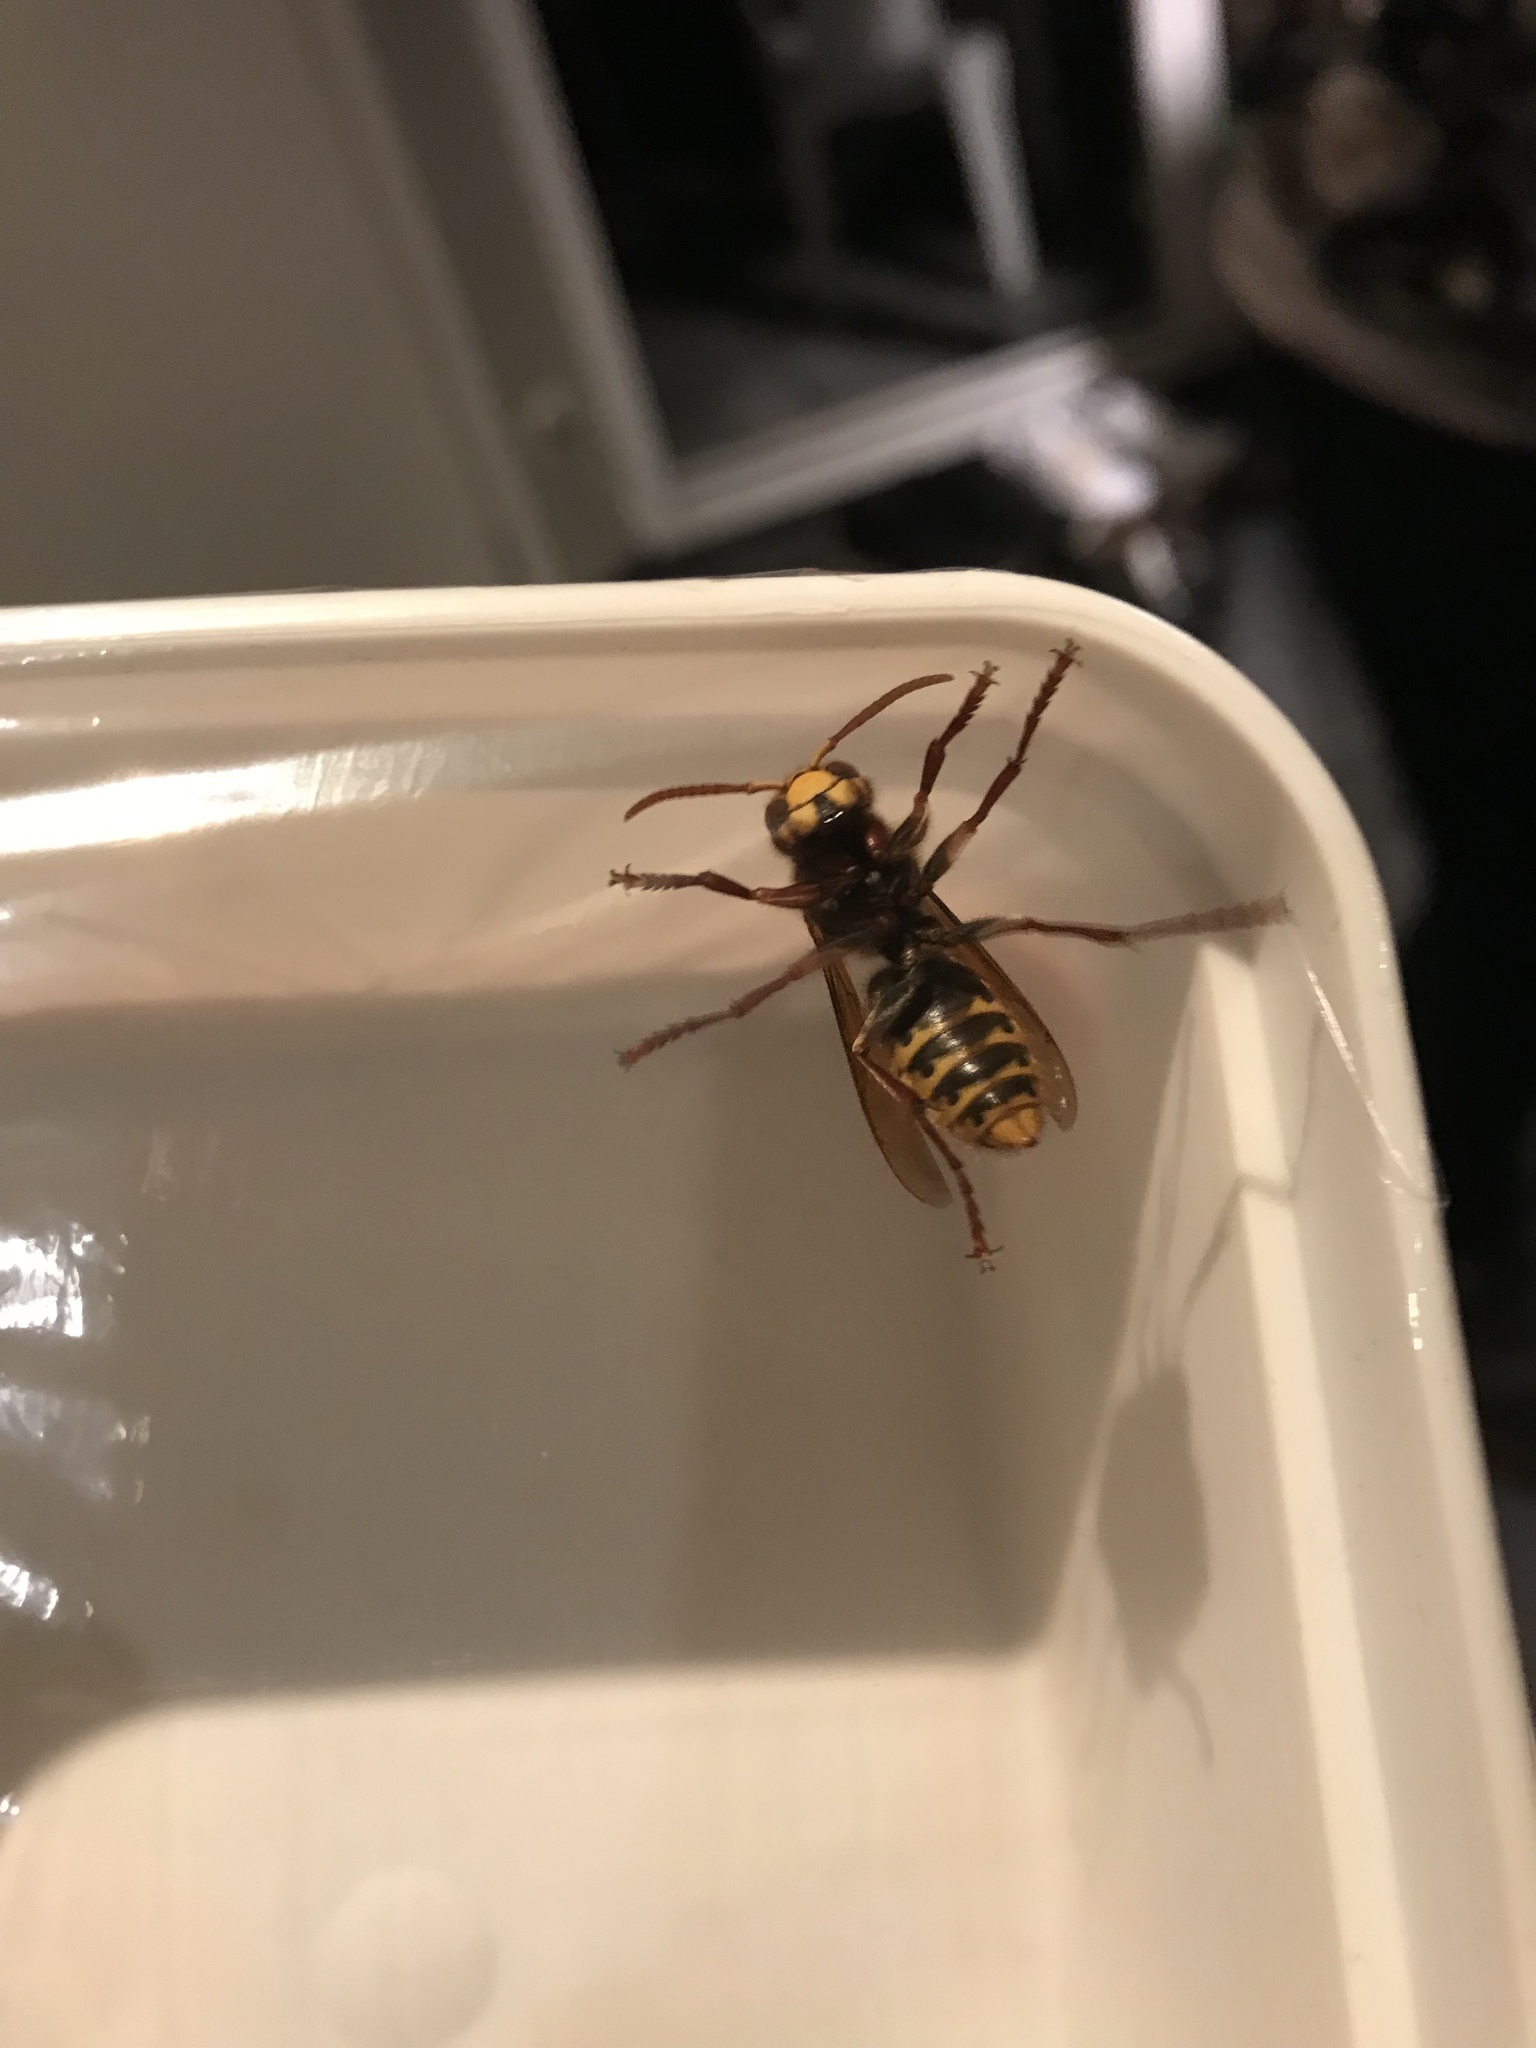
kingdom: Animalia
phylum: Arthropoda
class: Insecta
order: Hymenoptera
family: Vespidae
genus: Vespa
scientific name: Vespa crabro
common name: Hornet
